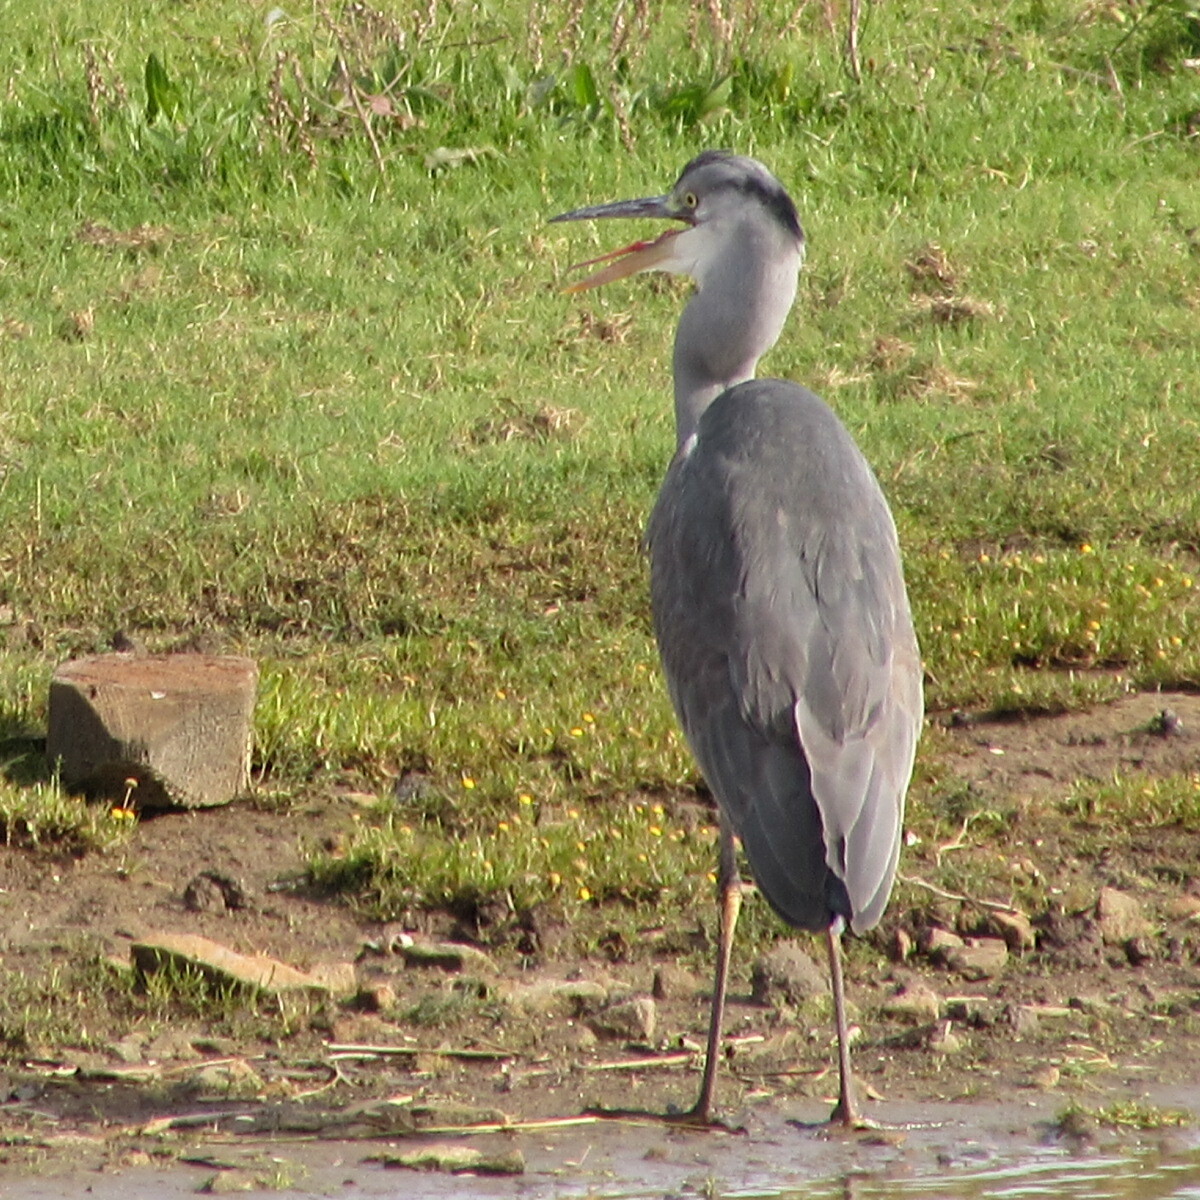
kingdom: Animalia
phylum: Chordata
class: Aves
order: Pelecaniformes
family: Ardeidae
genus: Ardea
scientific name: Ardea cinerea
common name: Grey heron
